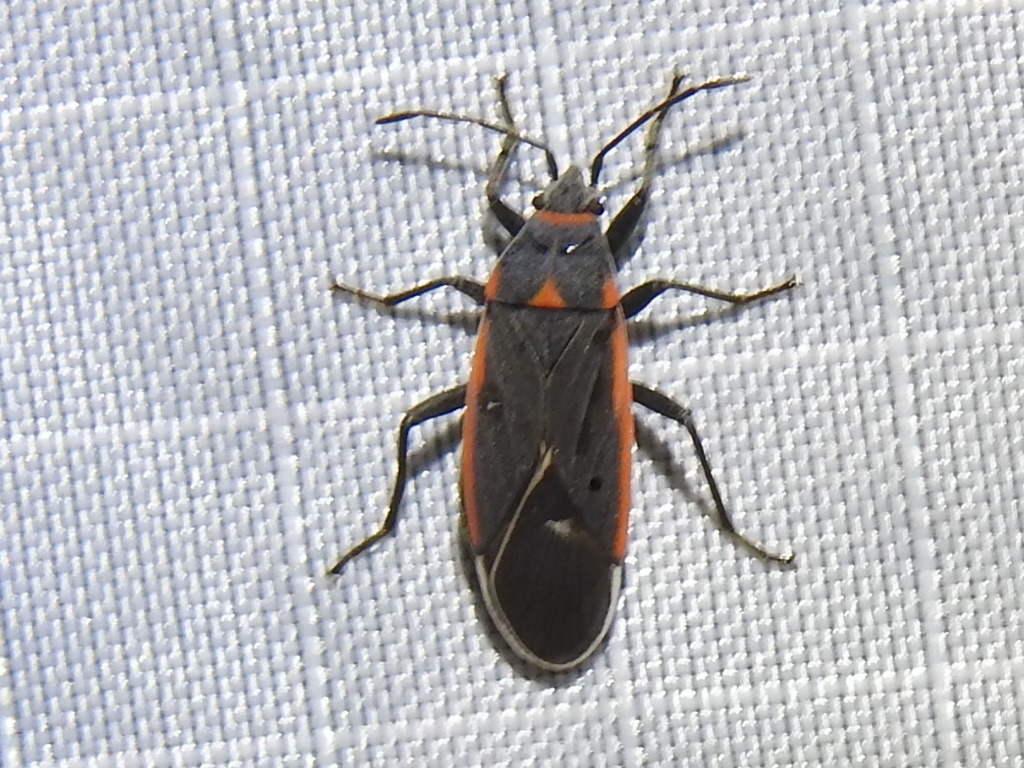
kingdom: Animalia
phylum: Arthropoda
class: Insecta
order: Hemiptera
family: Lygaeidae
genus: Melacoryphus
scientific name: Melacoryphus lateralis
